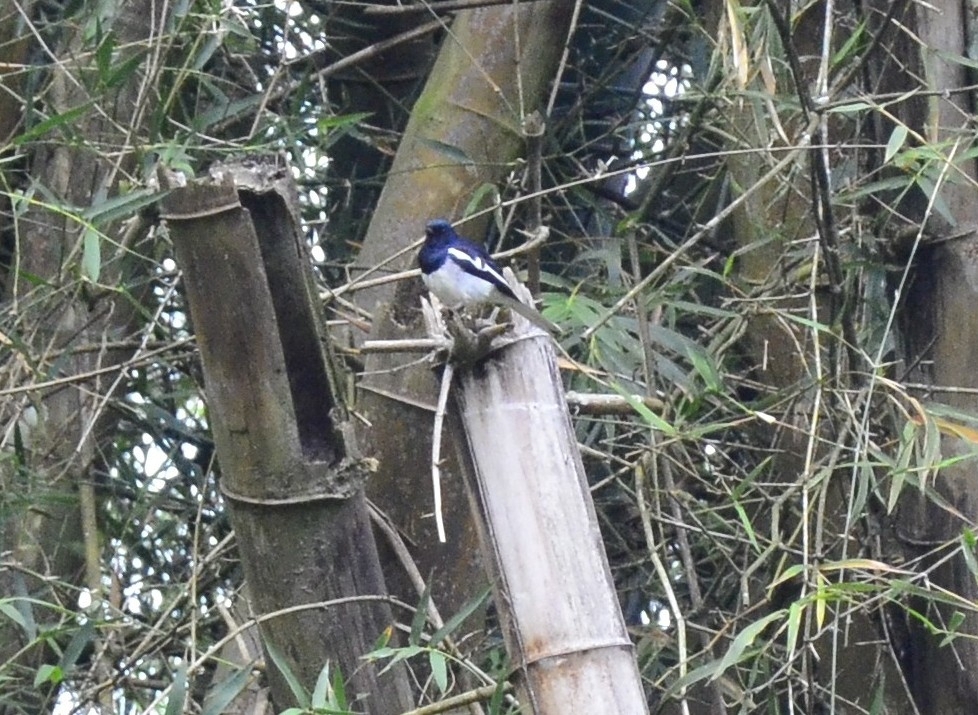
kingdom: Animalia
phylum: Chordata
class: Aves
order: Passeriformes
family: Muscicapidae
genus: Copsychus
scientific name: Copsychus saularis
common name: Oriental magpie-robin
